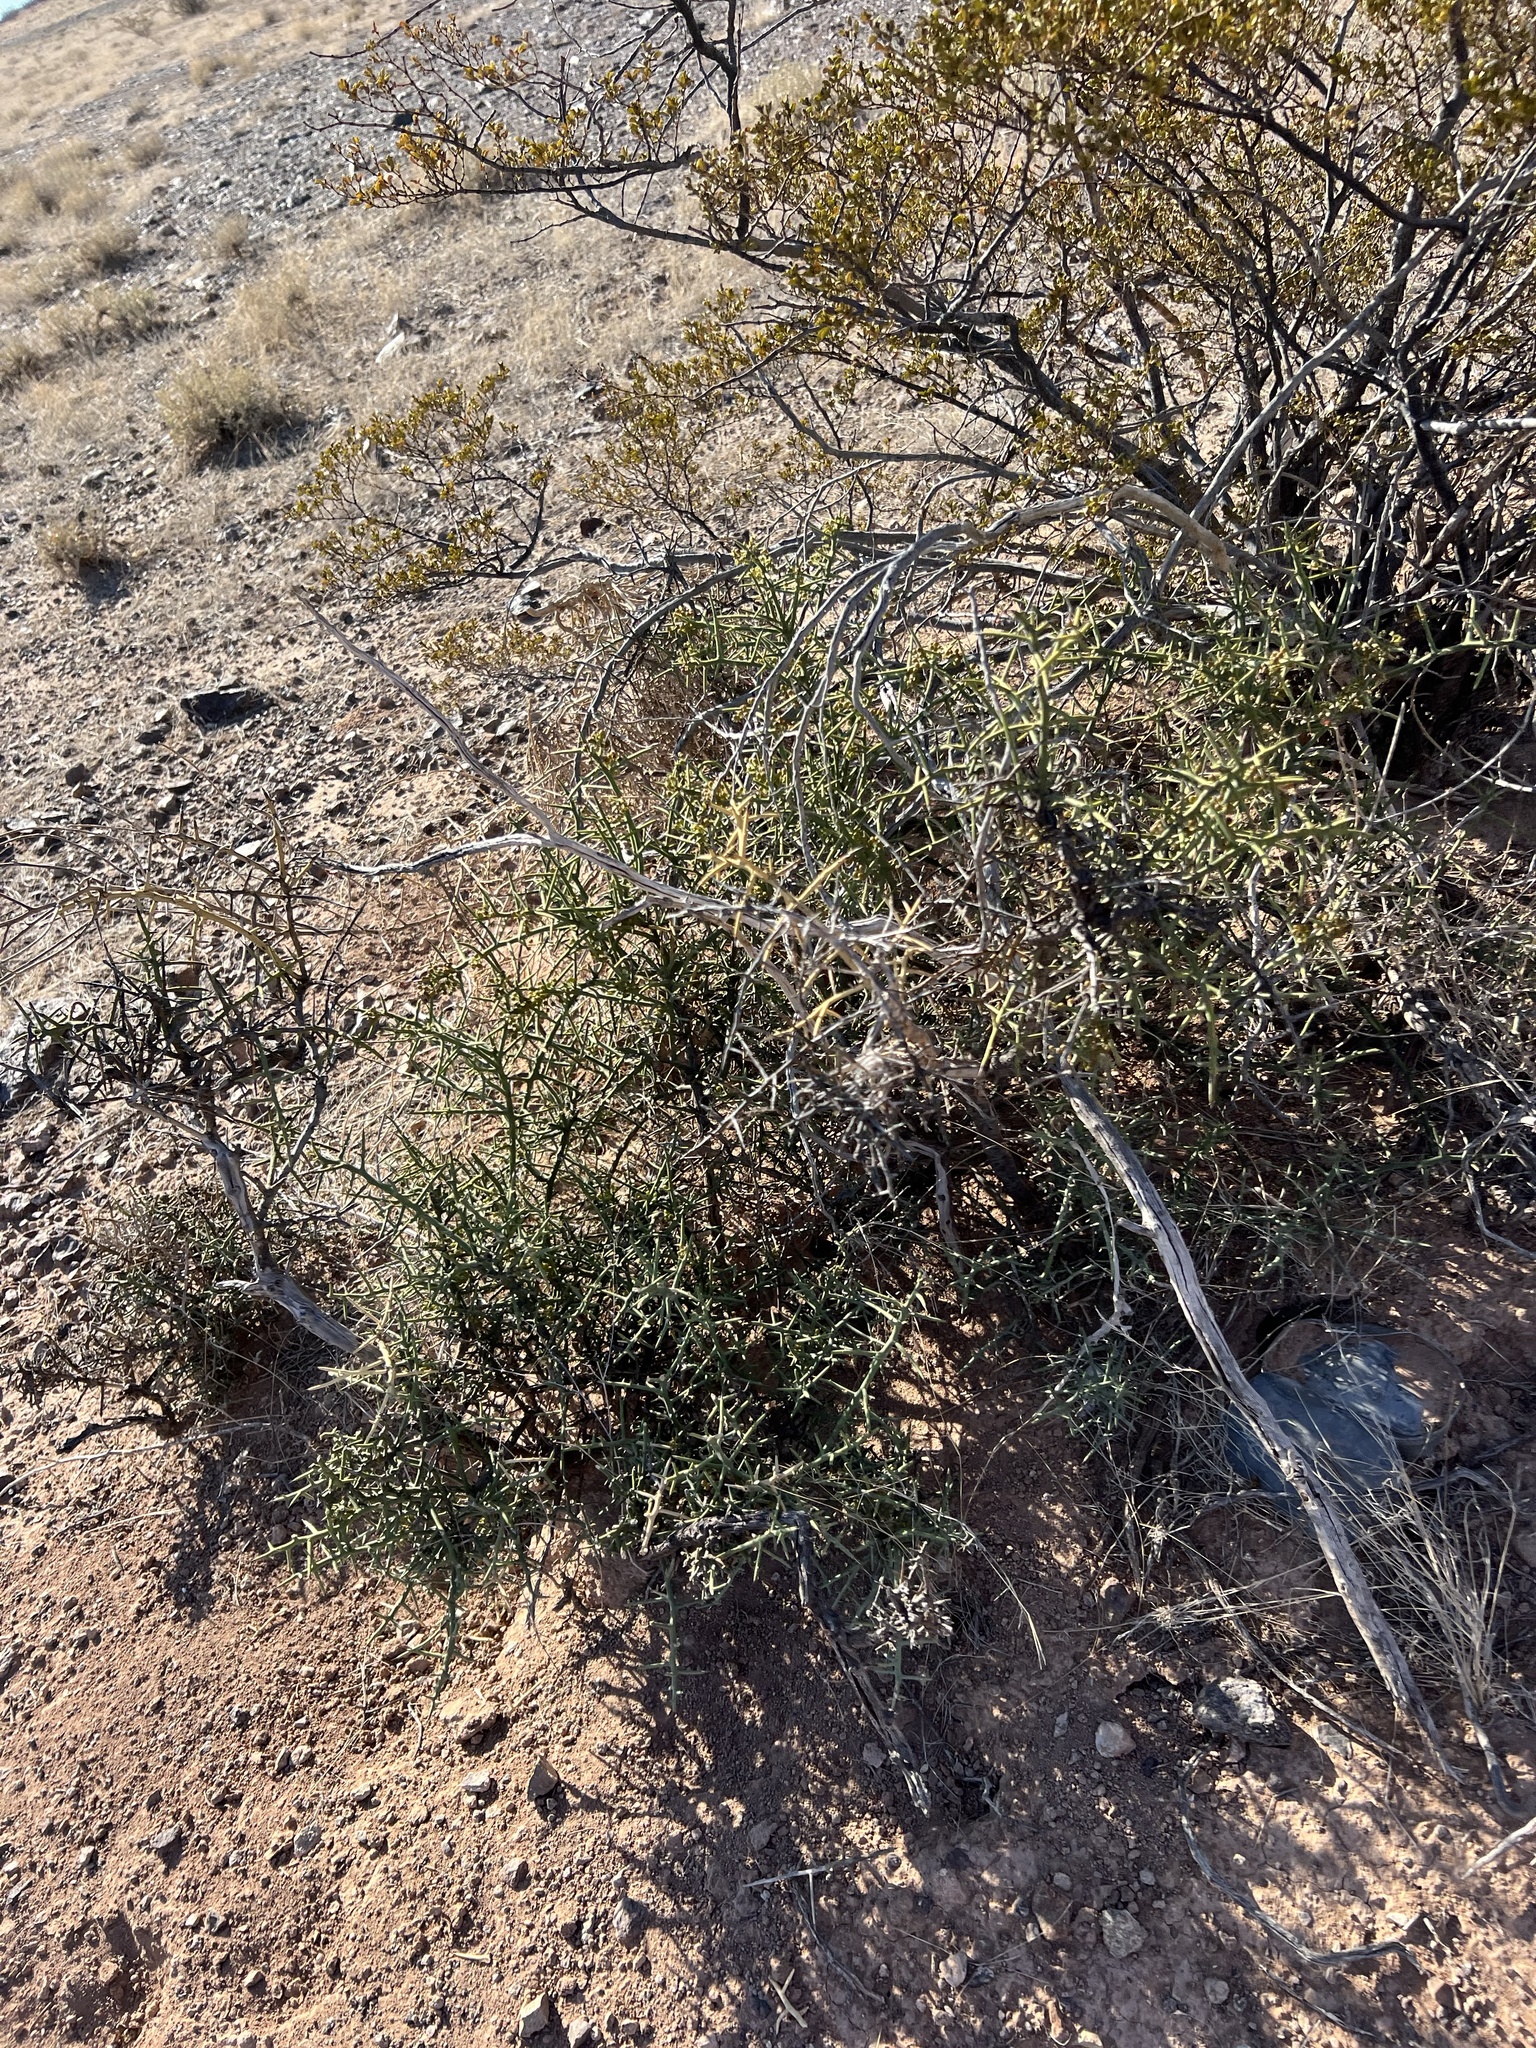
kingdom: Plantae
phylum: Tracheophyta
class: Magnoliopsida
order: Brassicales
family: Koeberliniaceae
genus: Koeberlinia
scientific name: Koeberlinia spinosa
